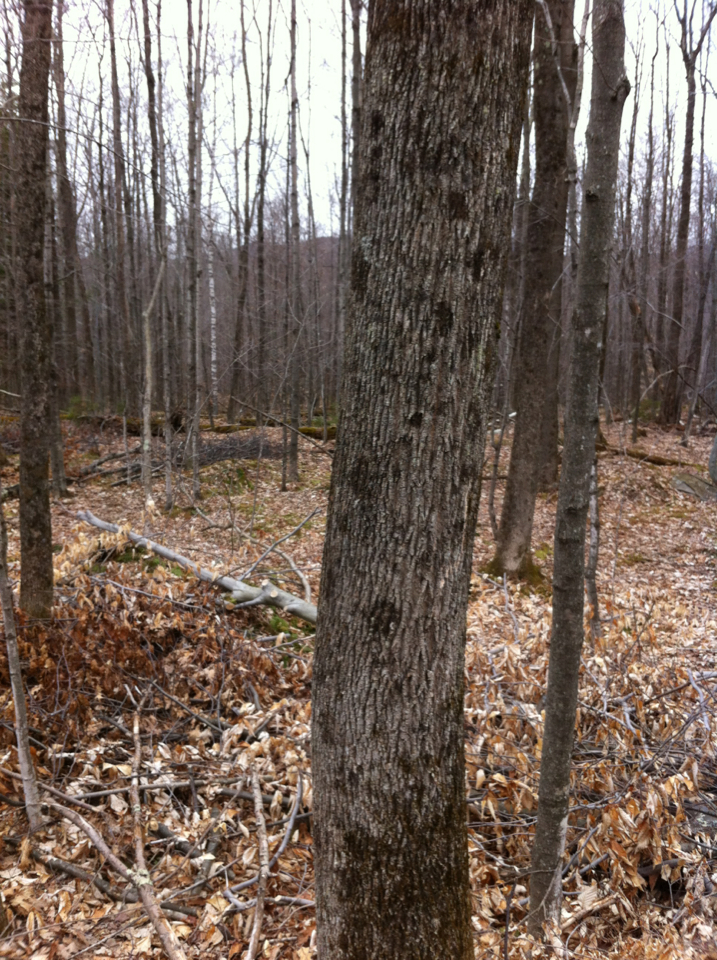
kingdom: Plantae
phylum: Tracheophyta
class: Magnoliopsida
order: Lamiales
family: Oleaceae
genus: Fraxinus
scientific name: Fraxinus americana
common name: White ash
